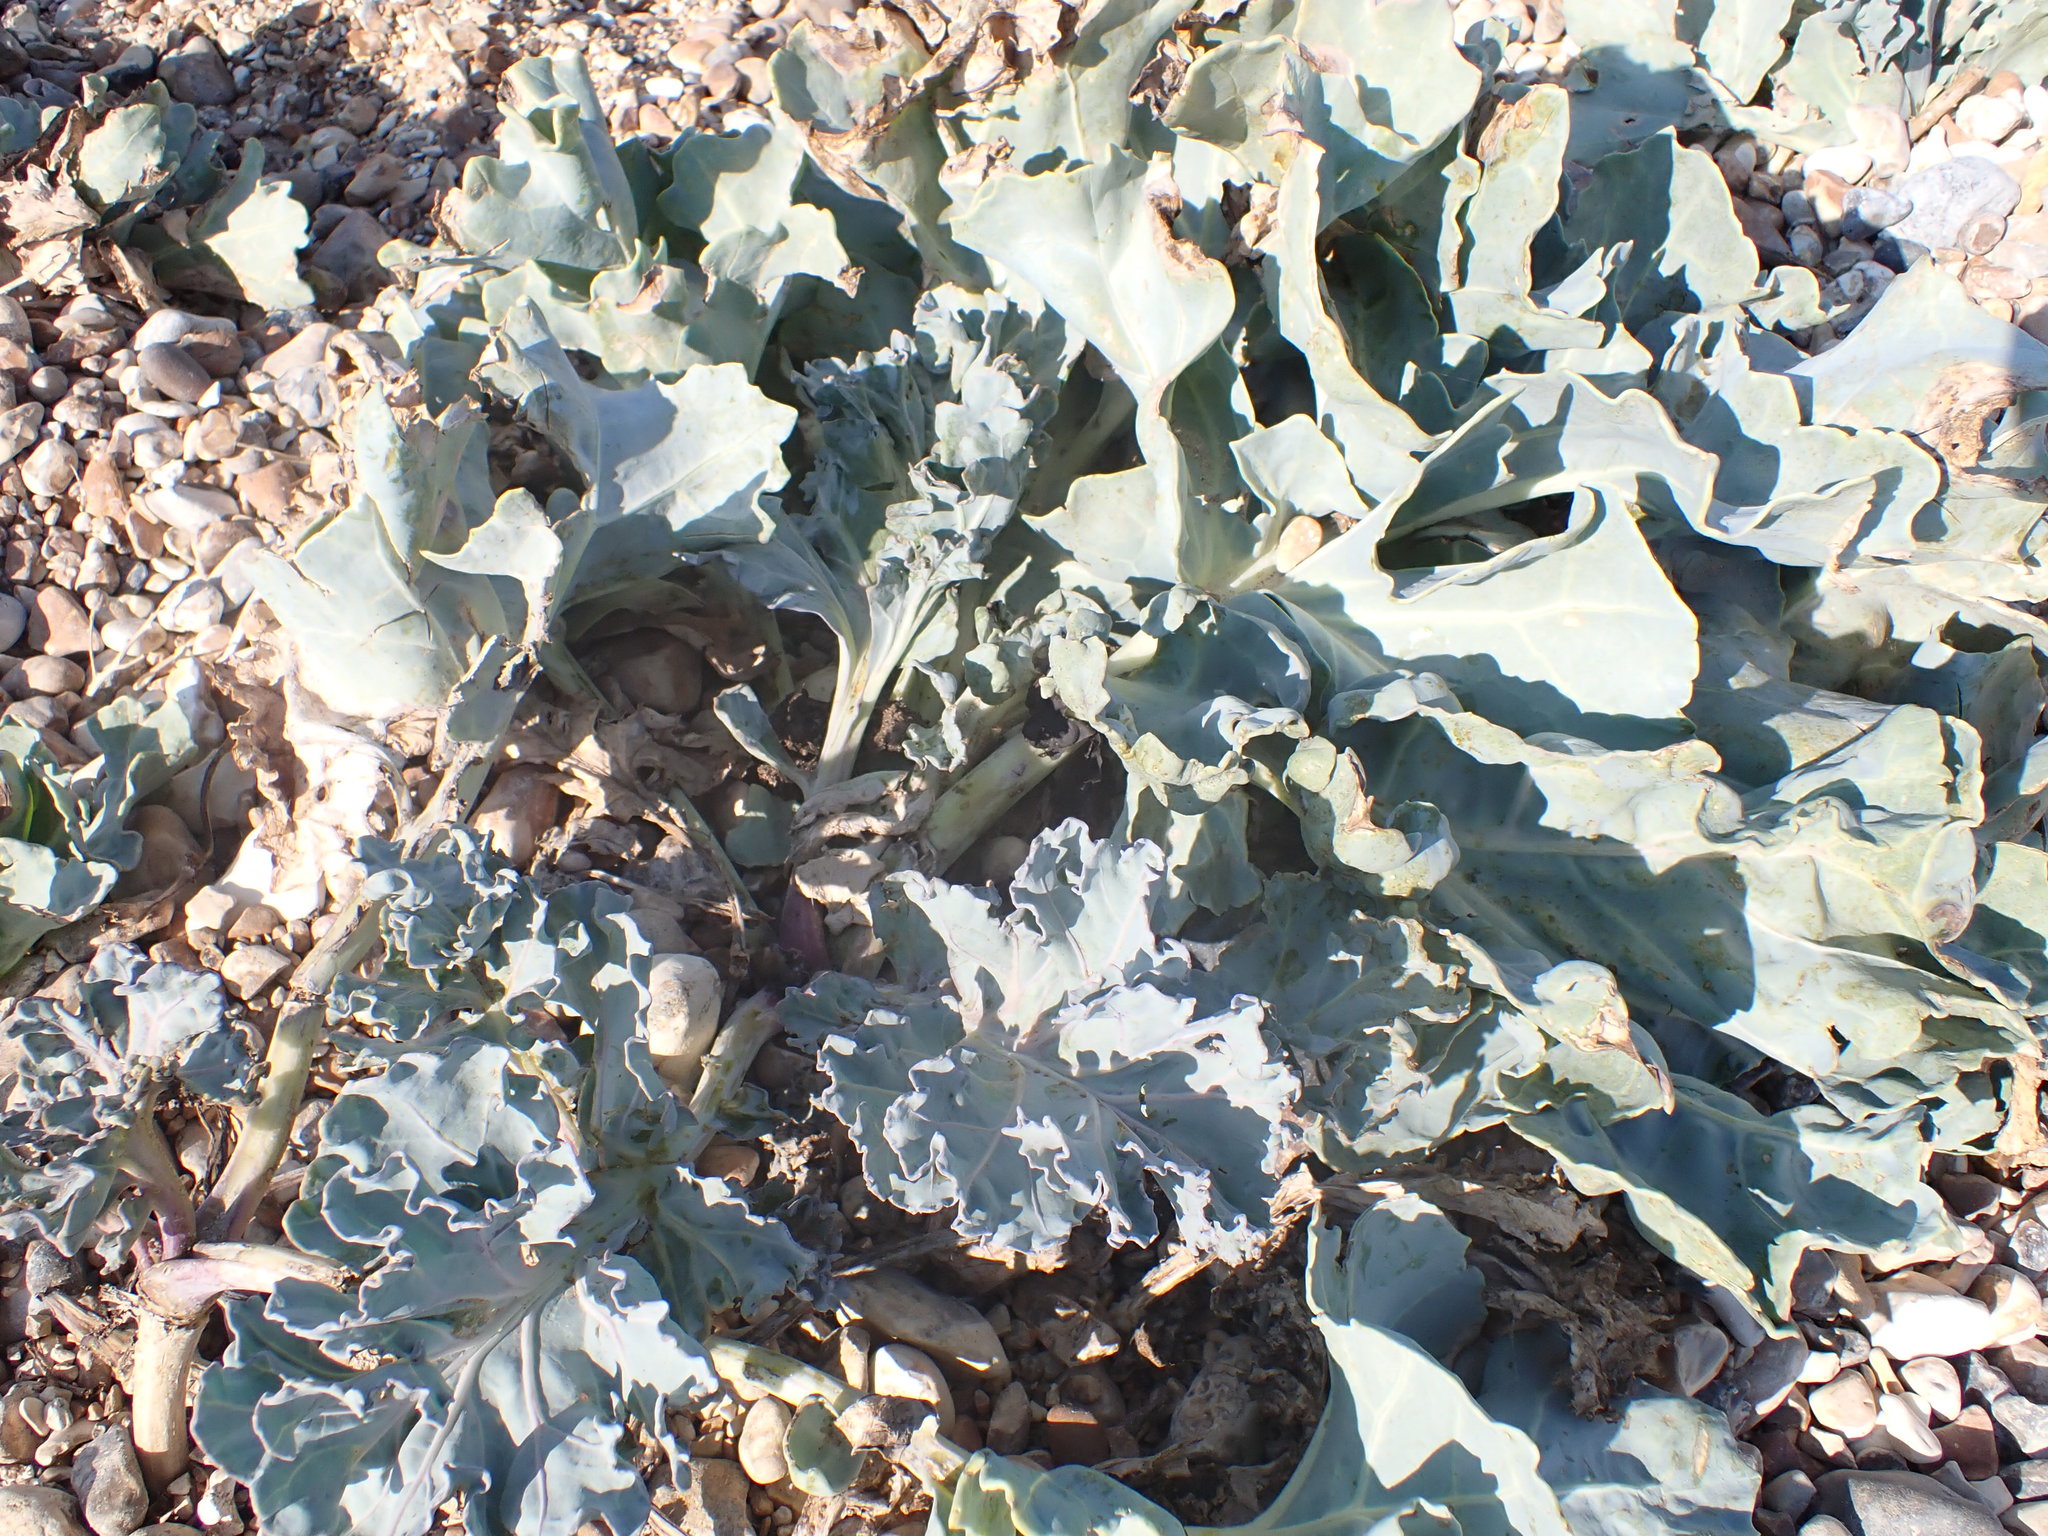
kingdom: Plantae
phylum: Tracheophyta
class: Magnoliopsida
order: Brassicales
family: Brassicaceae
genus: Crambe
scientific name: Crambe maritima
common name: Sea-kale
